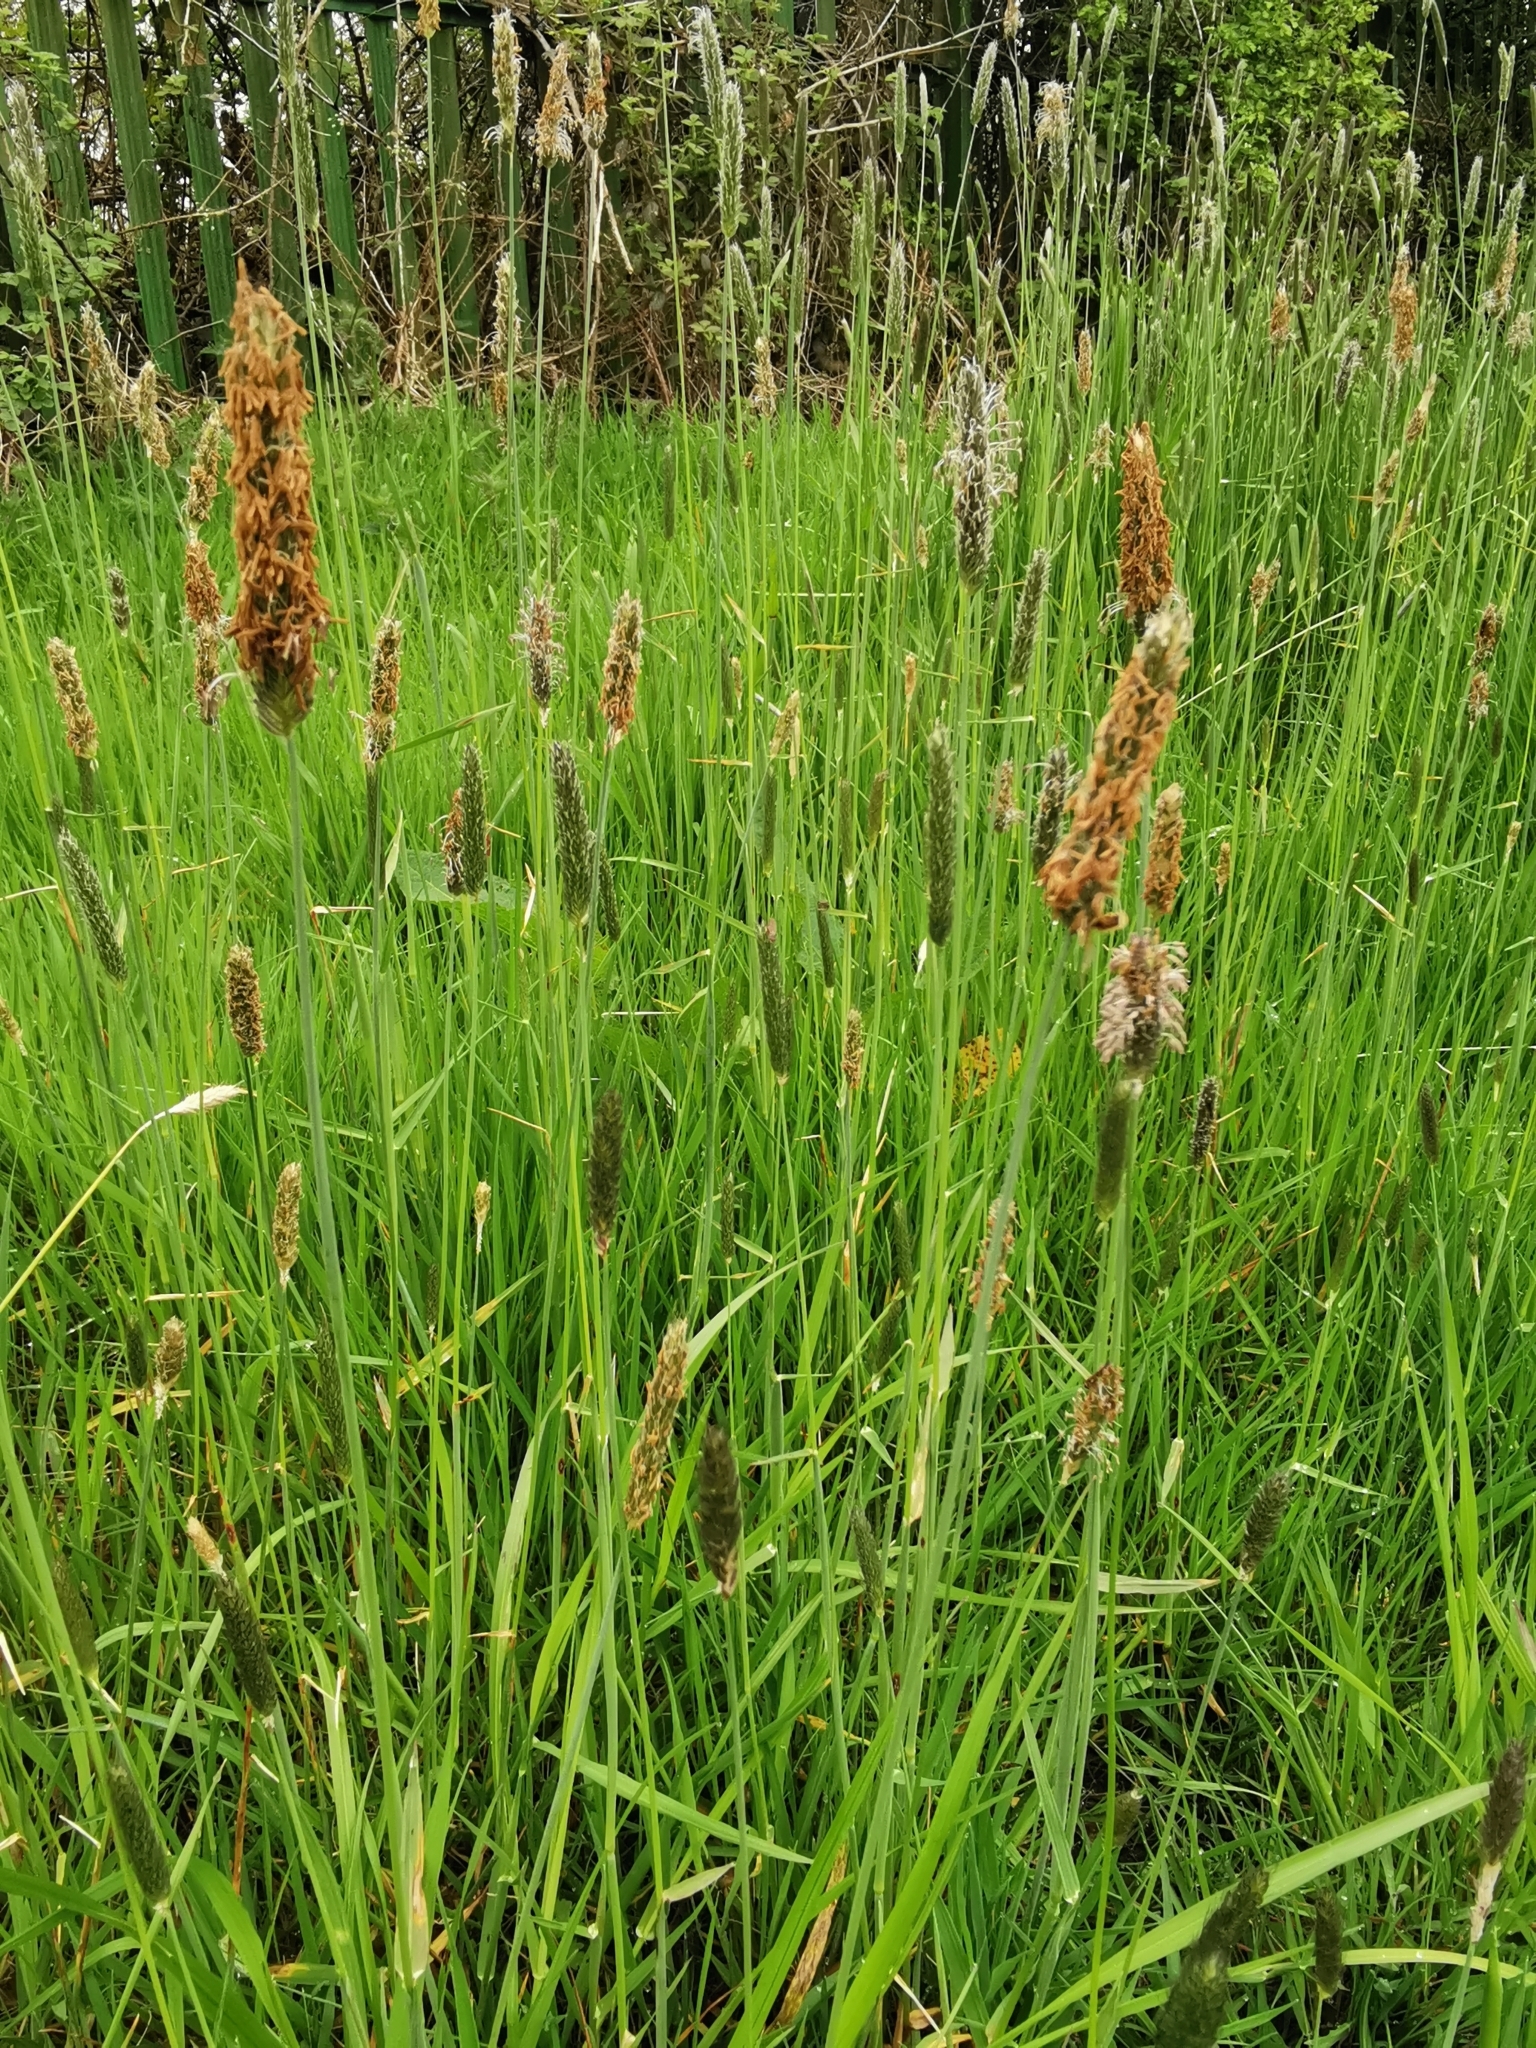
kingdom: Plantae
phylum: Tracheophyta
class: Liliopsida
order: Poales
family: Poaceae
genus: Alopecurus
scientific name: Alopecurus pratensis
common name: Meadow foxtail
